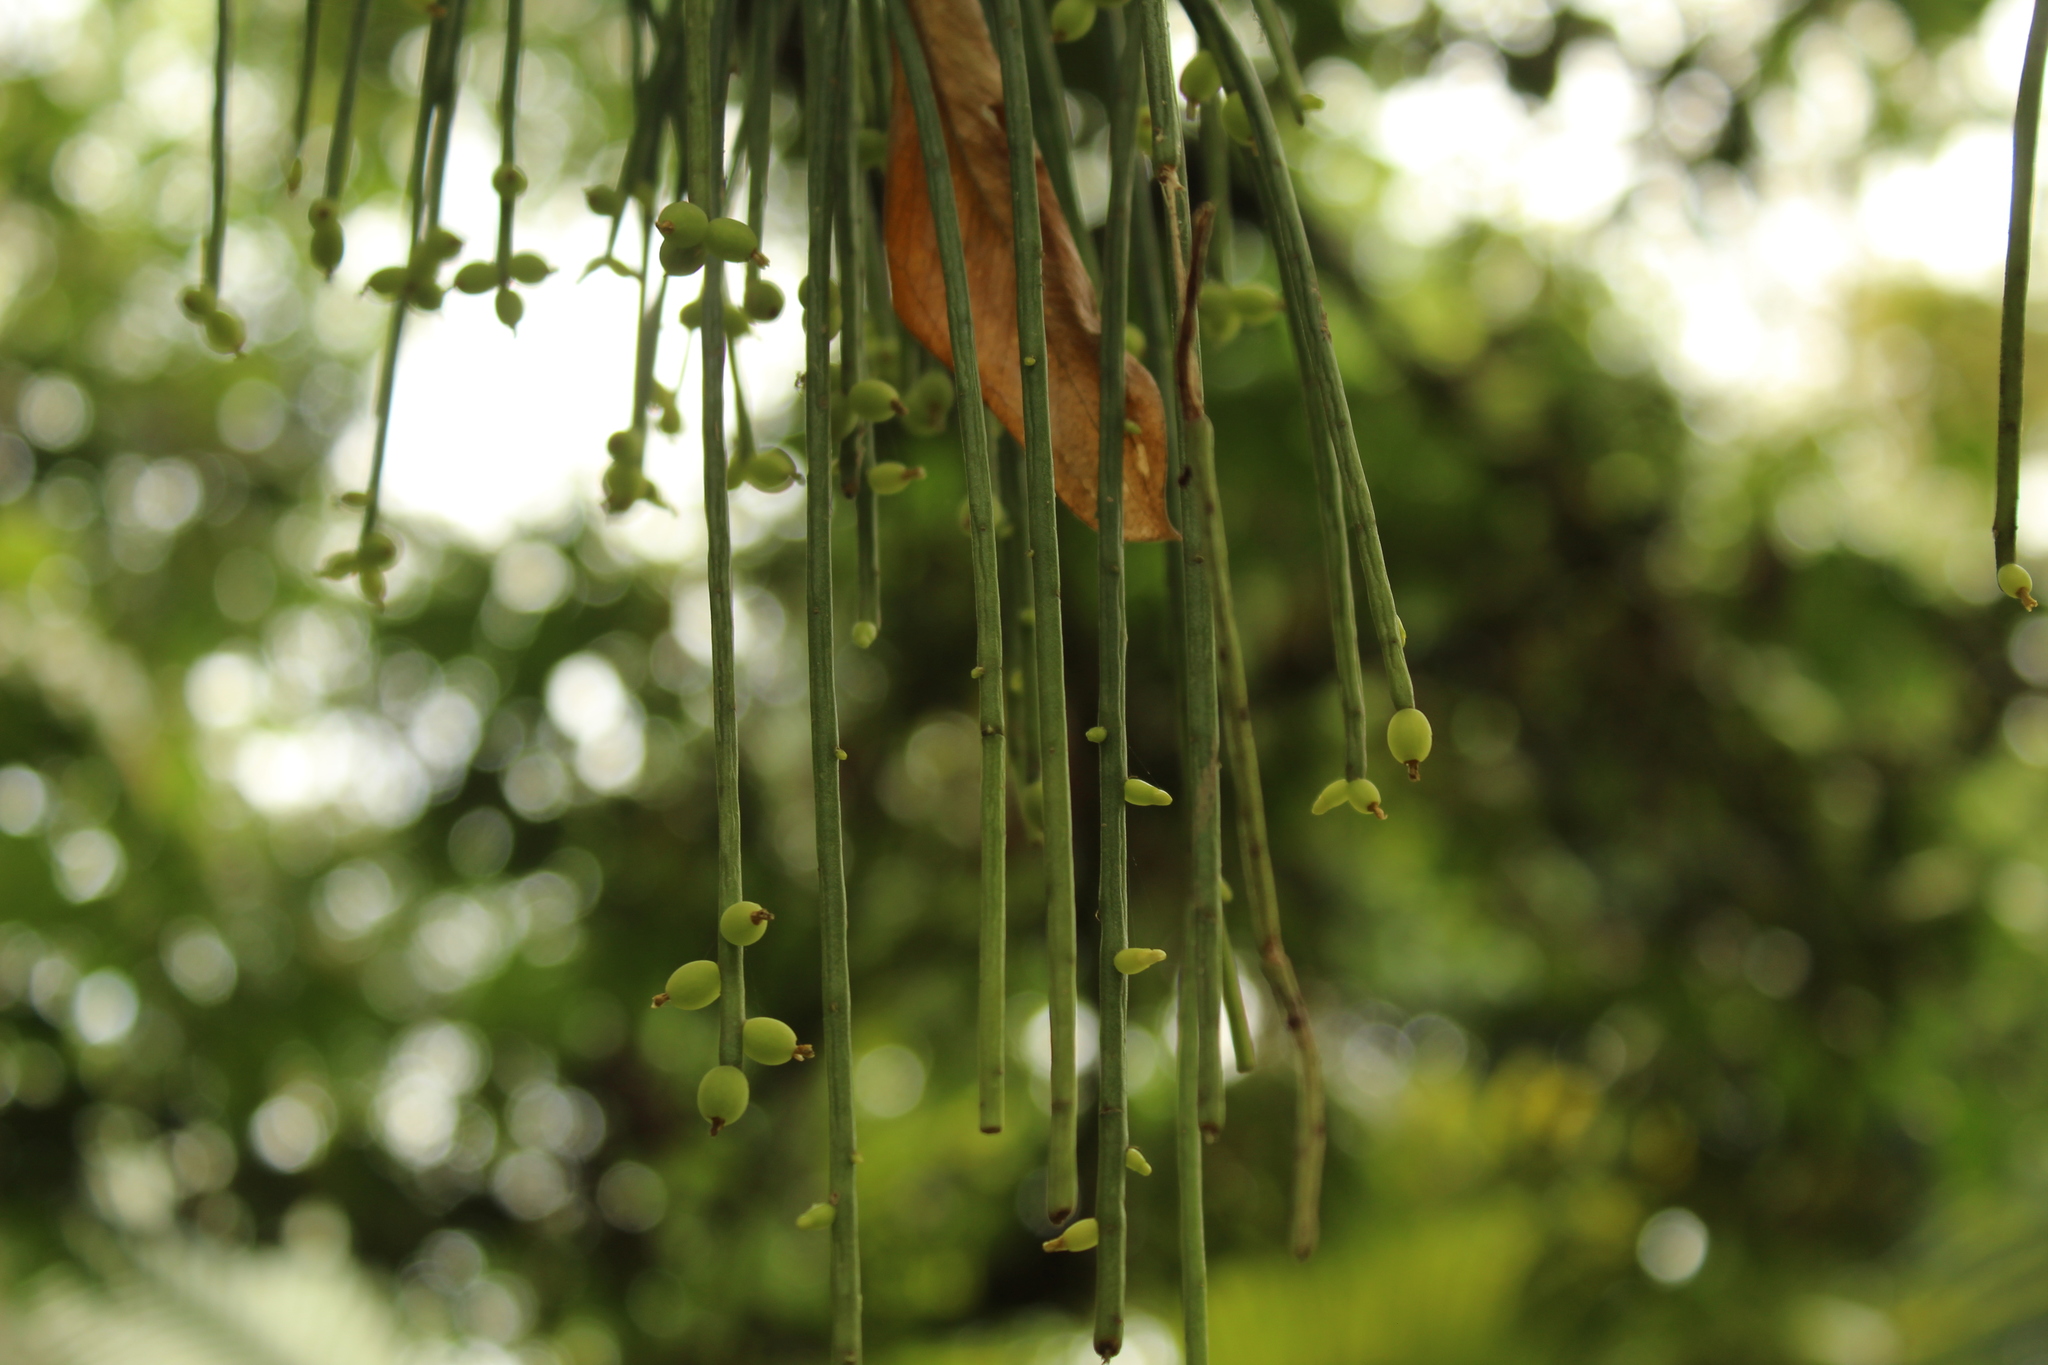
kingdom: Plantae
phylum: Tracheophyta
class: Magnoliopsida
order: Caryophyllales
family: Cactaceae
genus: Rhipsalis
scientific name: Rhipsalis baccifera
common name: Mistletoe cactus
